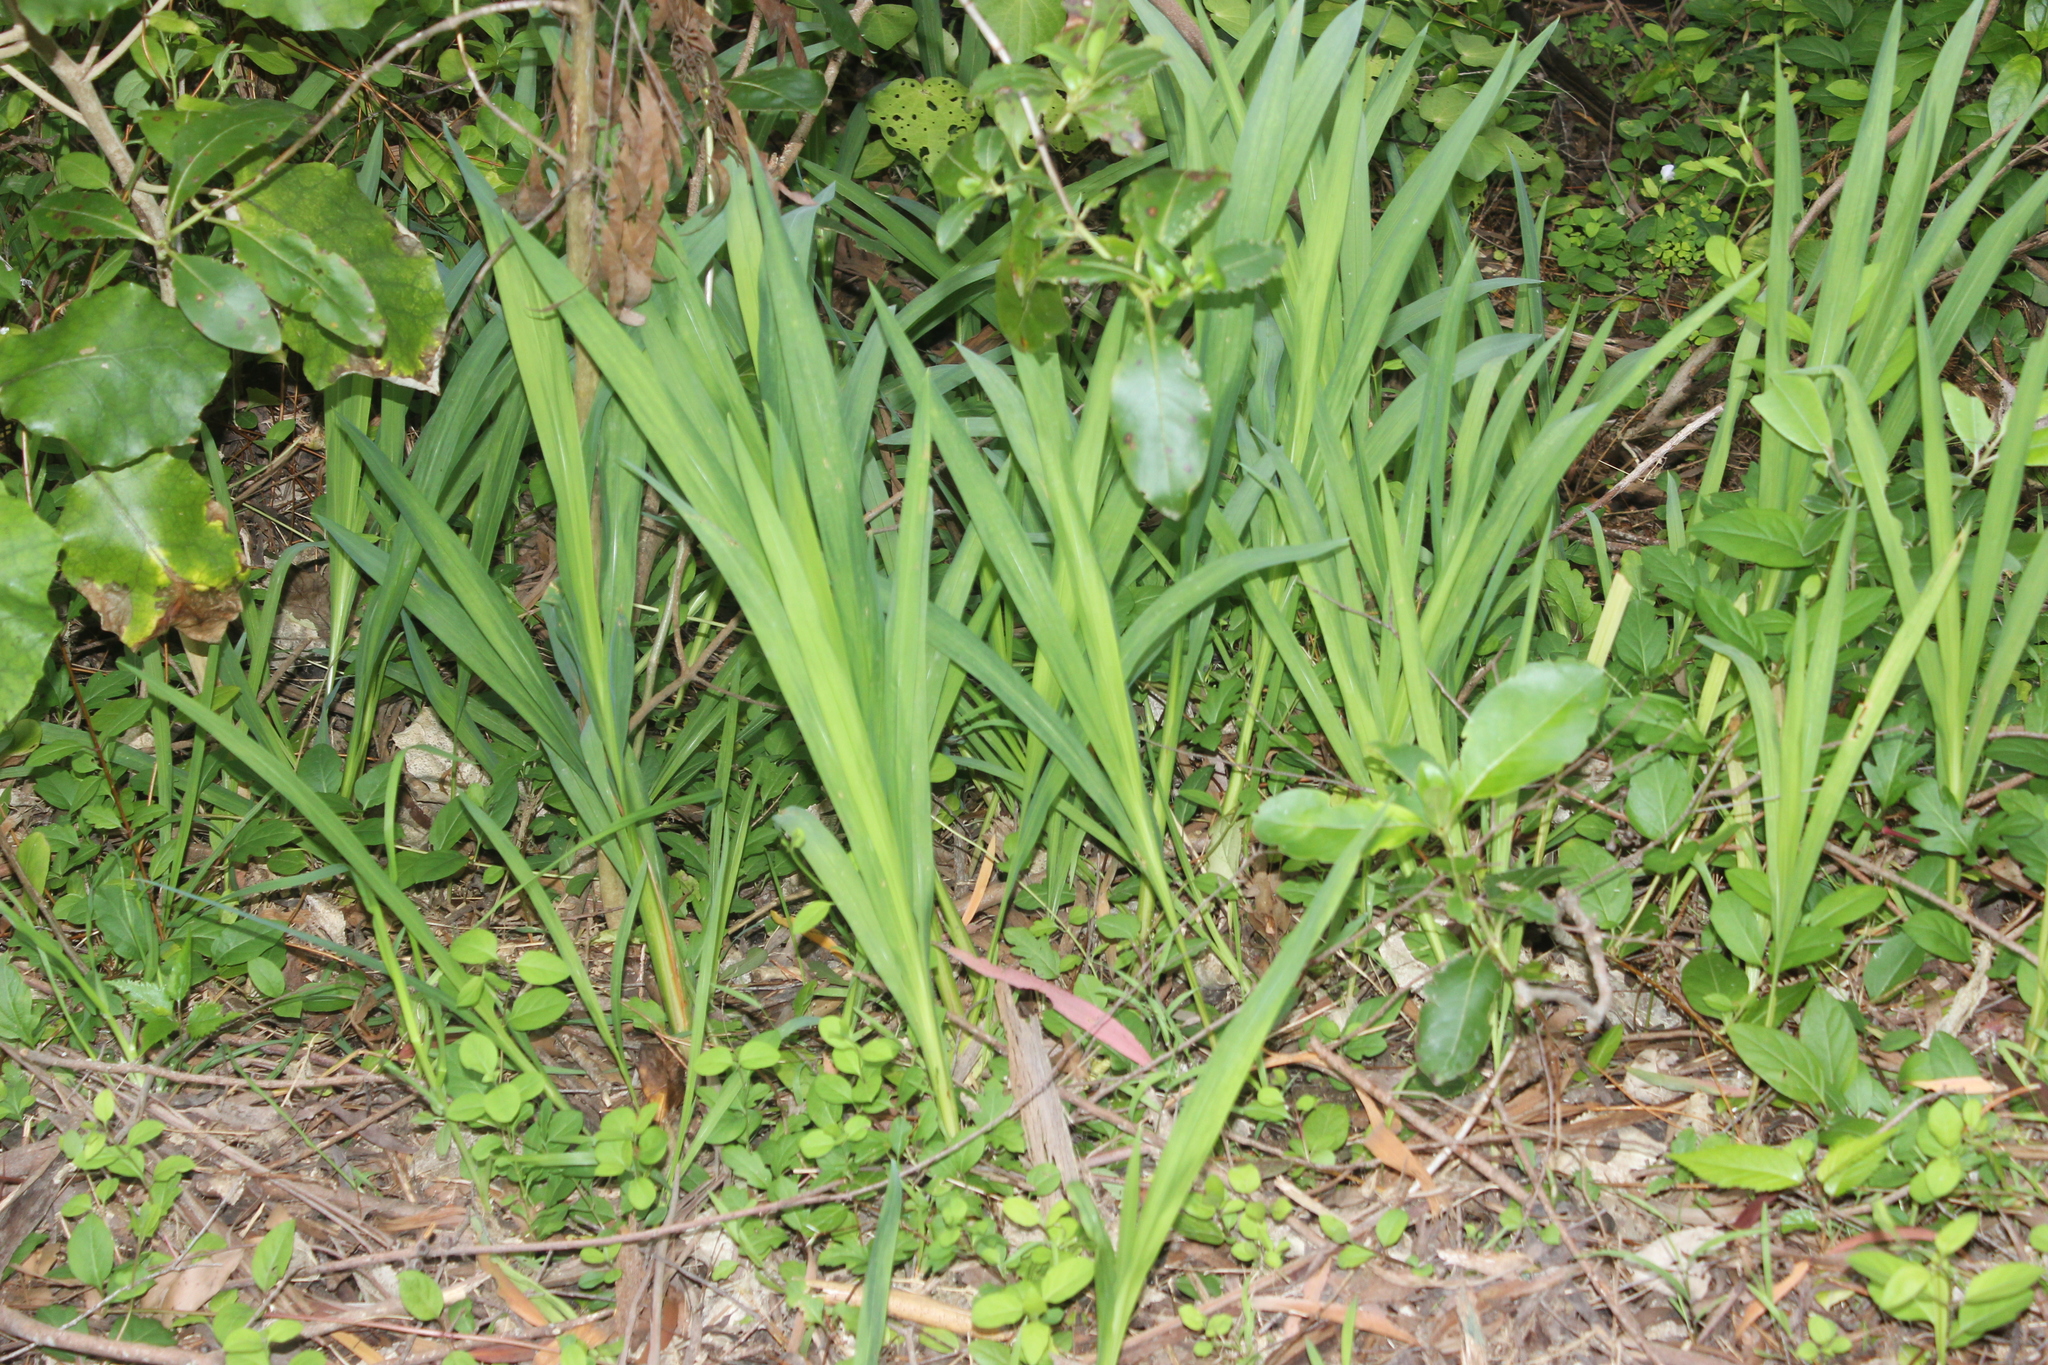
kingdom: Plantae
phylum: Tracheophyta
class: Liliopsida
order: Asparagales
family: Iridaceae
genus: Crocosmia
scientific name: Crocosmia crocosmiiflora
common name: Montbretia
